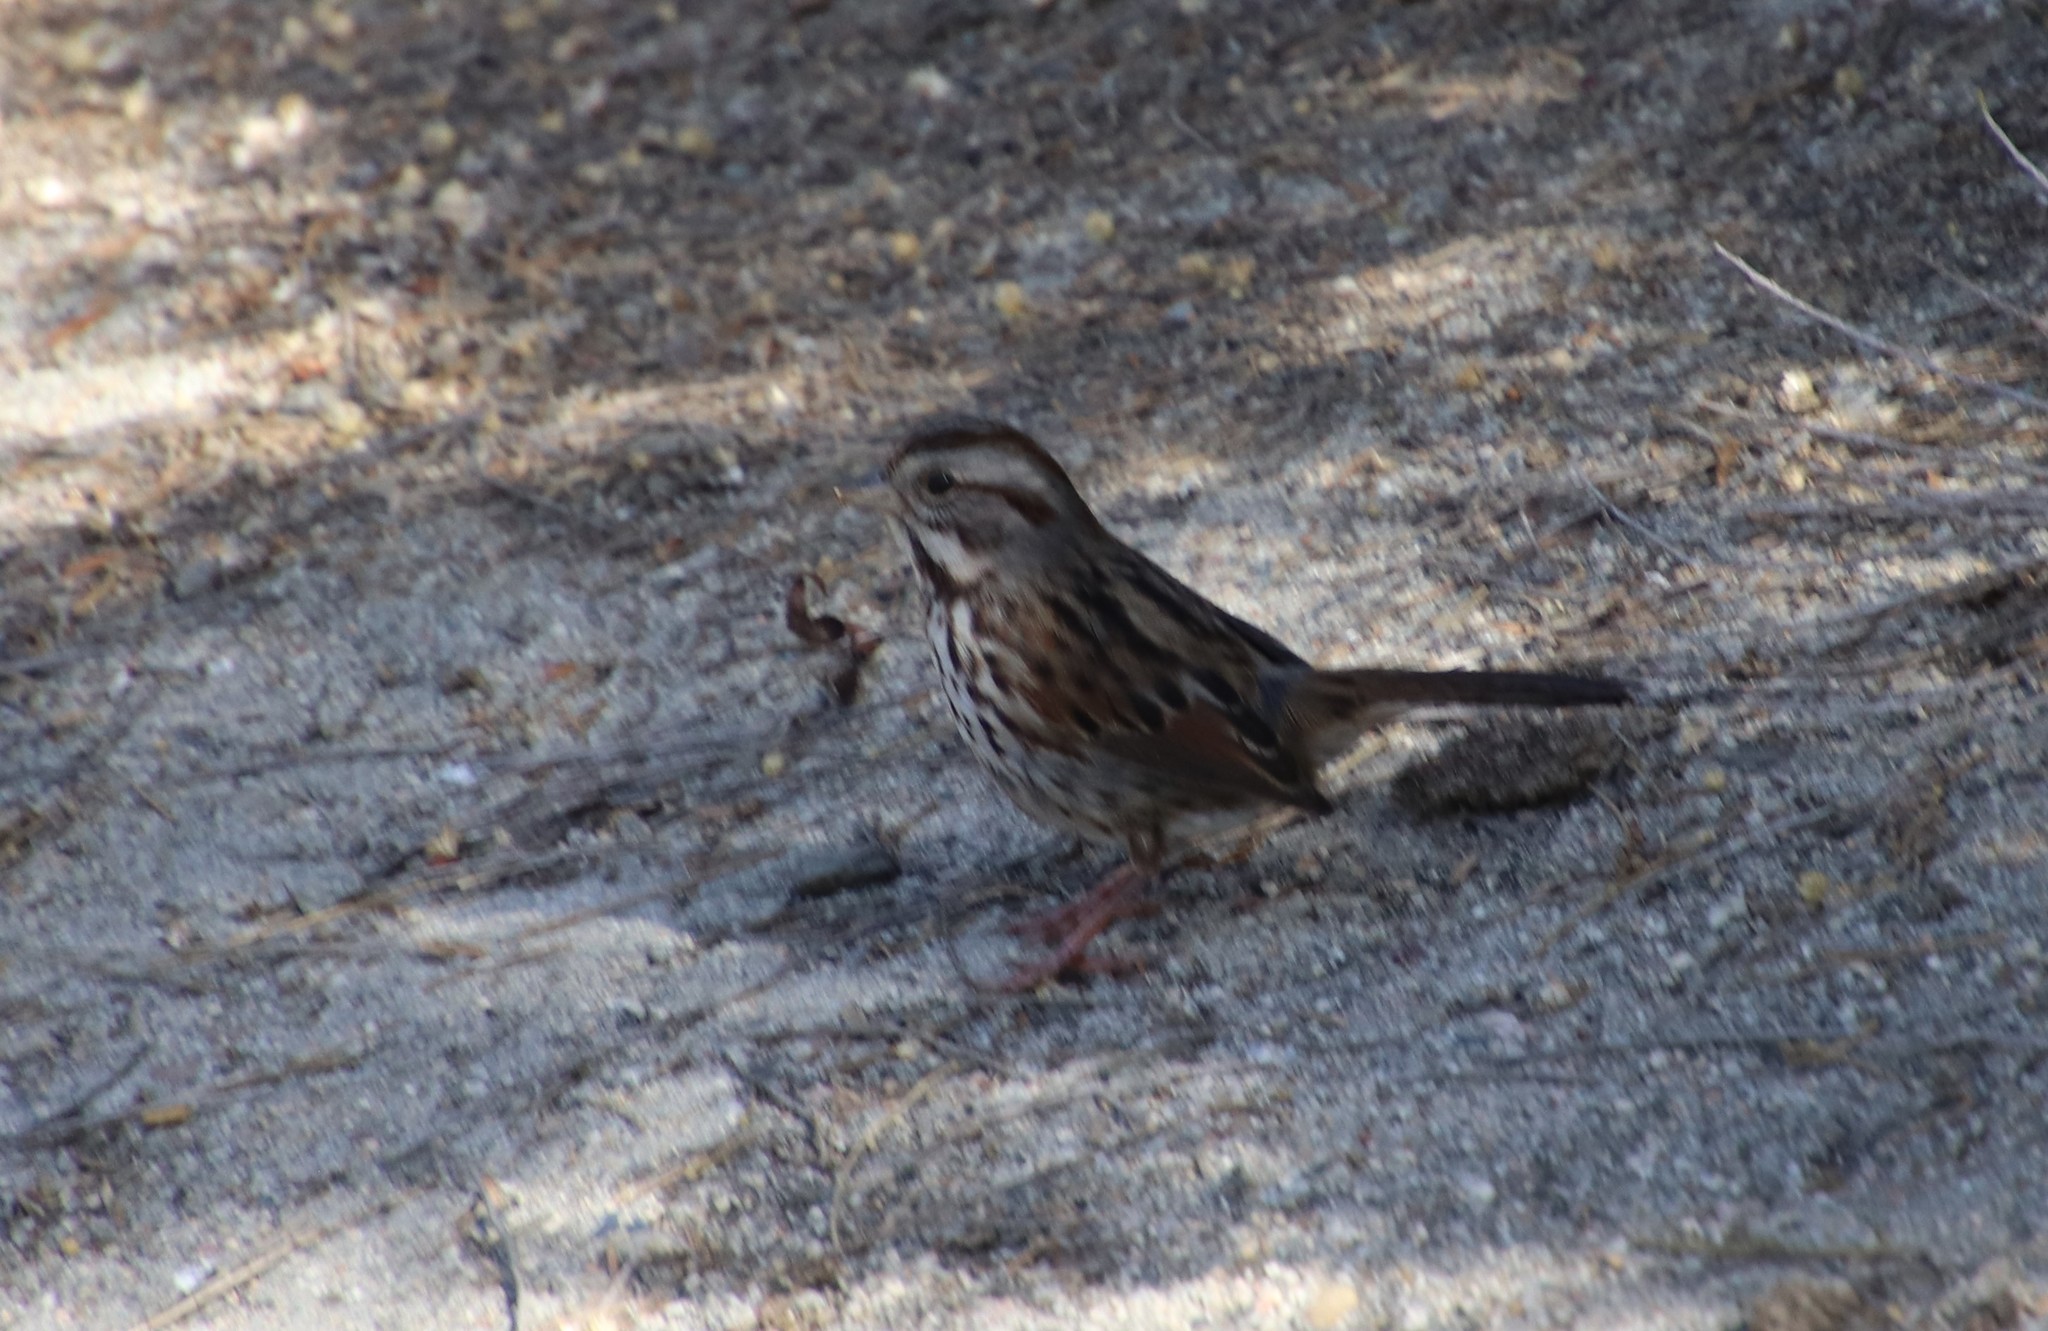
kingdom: Animalia
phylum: Chordata
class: Aves
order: Passeriformes
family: Passerellidae
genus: Melospiza
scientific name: Melospiza melodia
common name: Song sparrow
